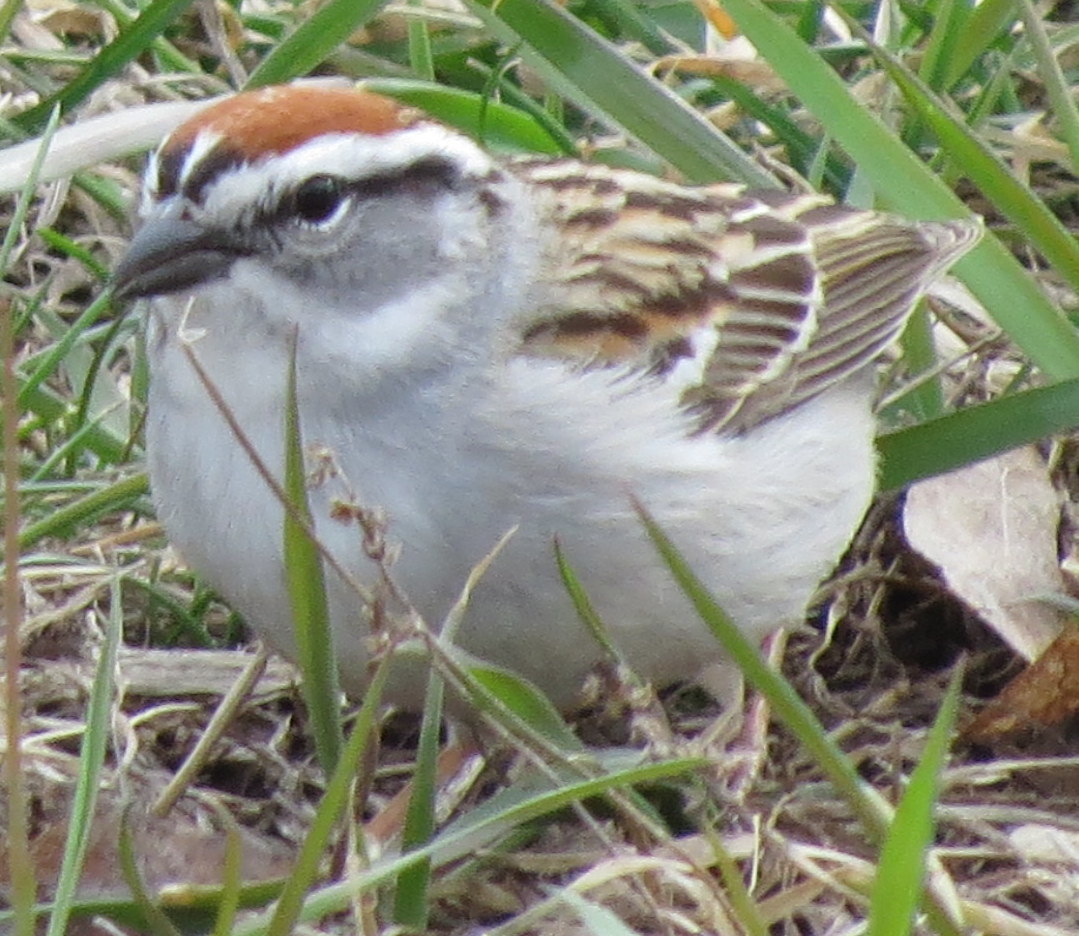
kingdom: Animalia
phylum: Chordata
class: Aves
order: Passeriformes
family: Passerellidae
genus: Spizella
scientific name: Spizella passerina
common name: Chipping sparrow
